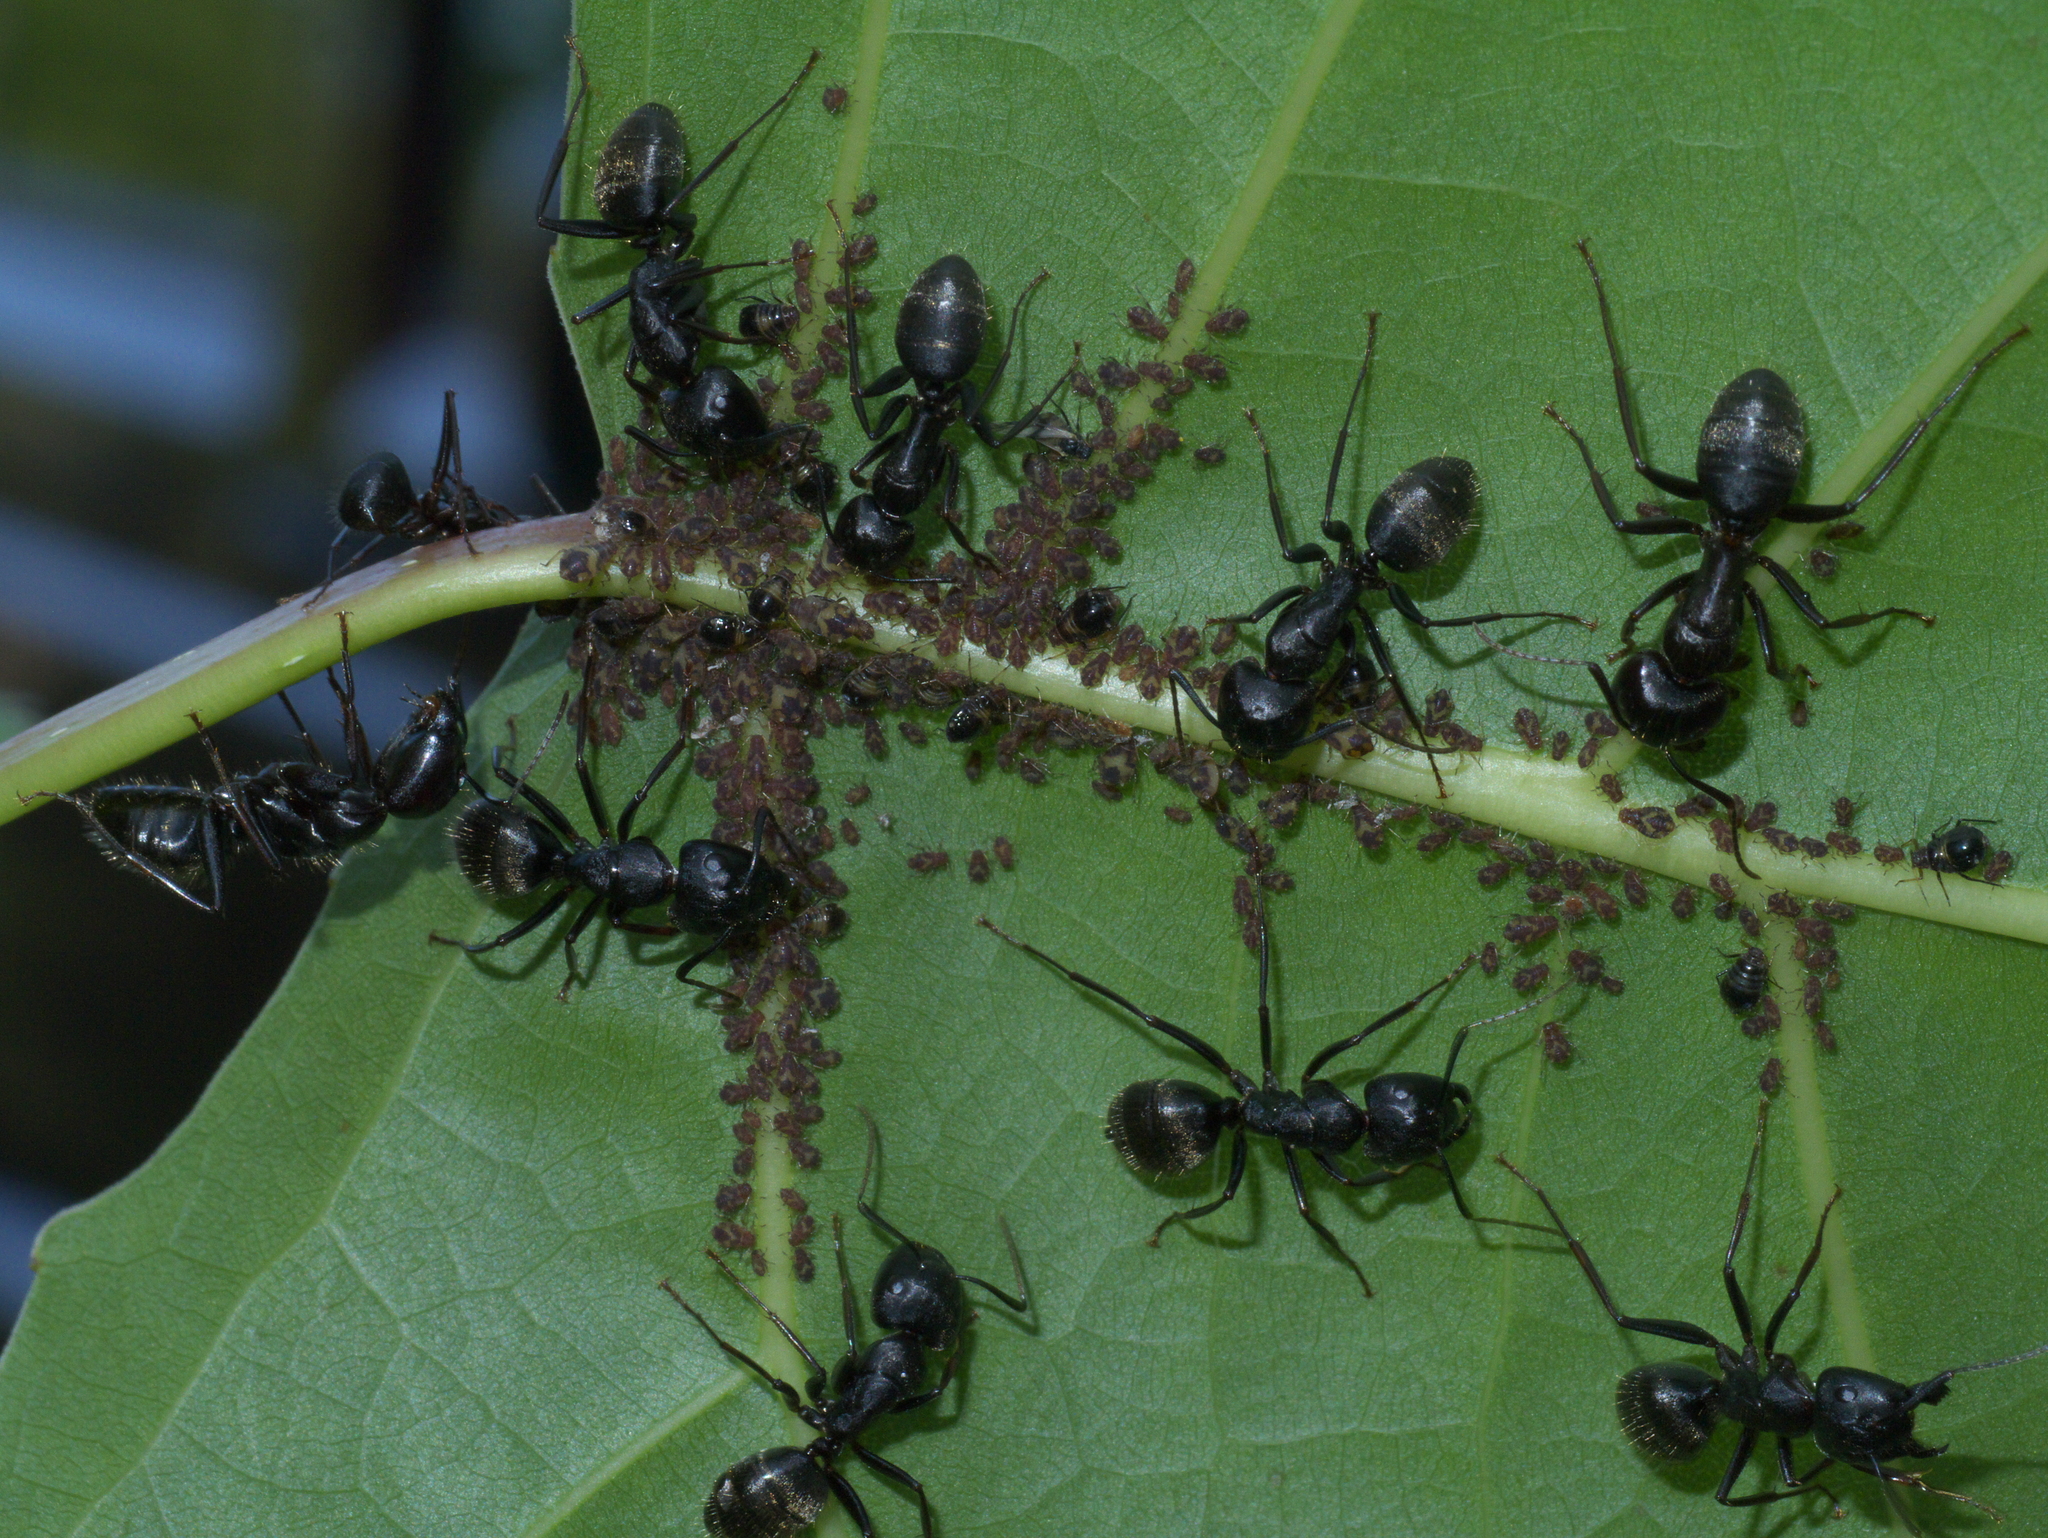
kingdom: Animalia
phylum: Arthropoda
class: Insecta
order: Hymenoptera
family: Formicidae
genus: Camponotus
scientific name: Camponotus pennsylvanicus
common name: Black carpenter ant
